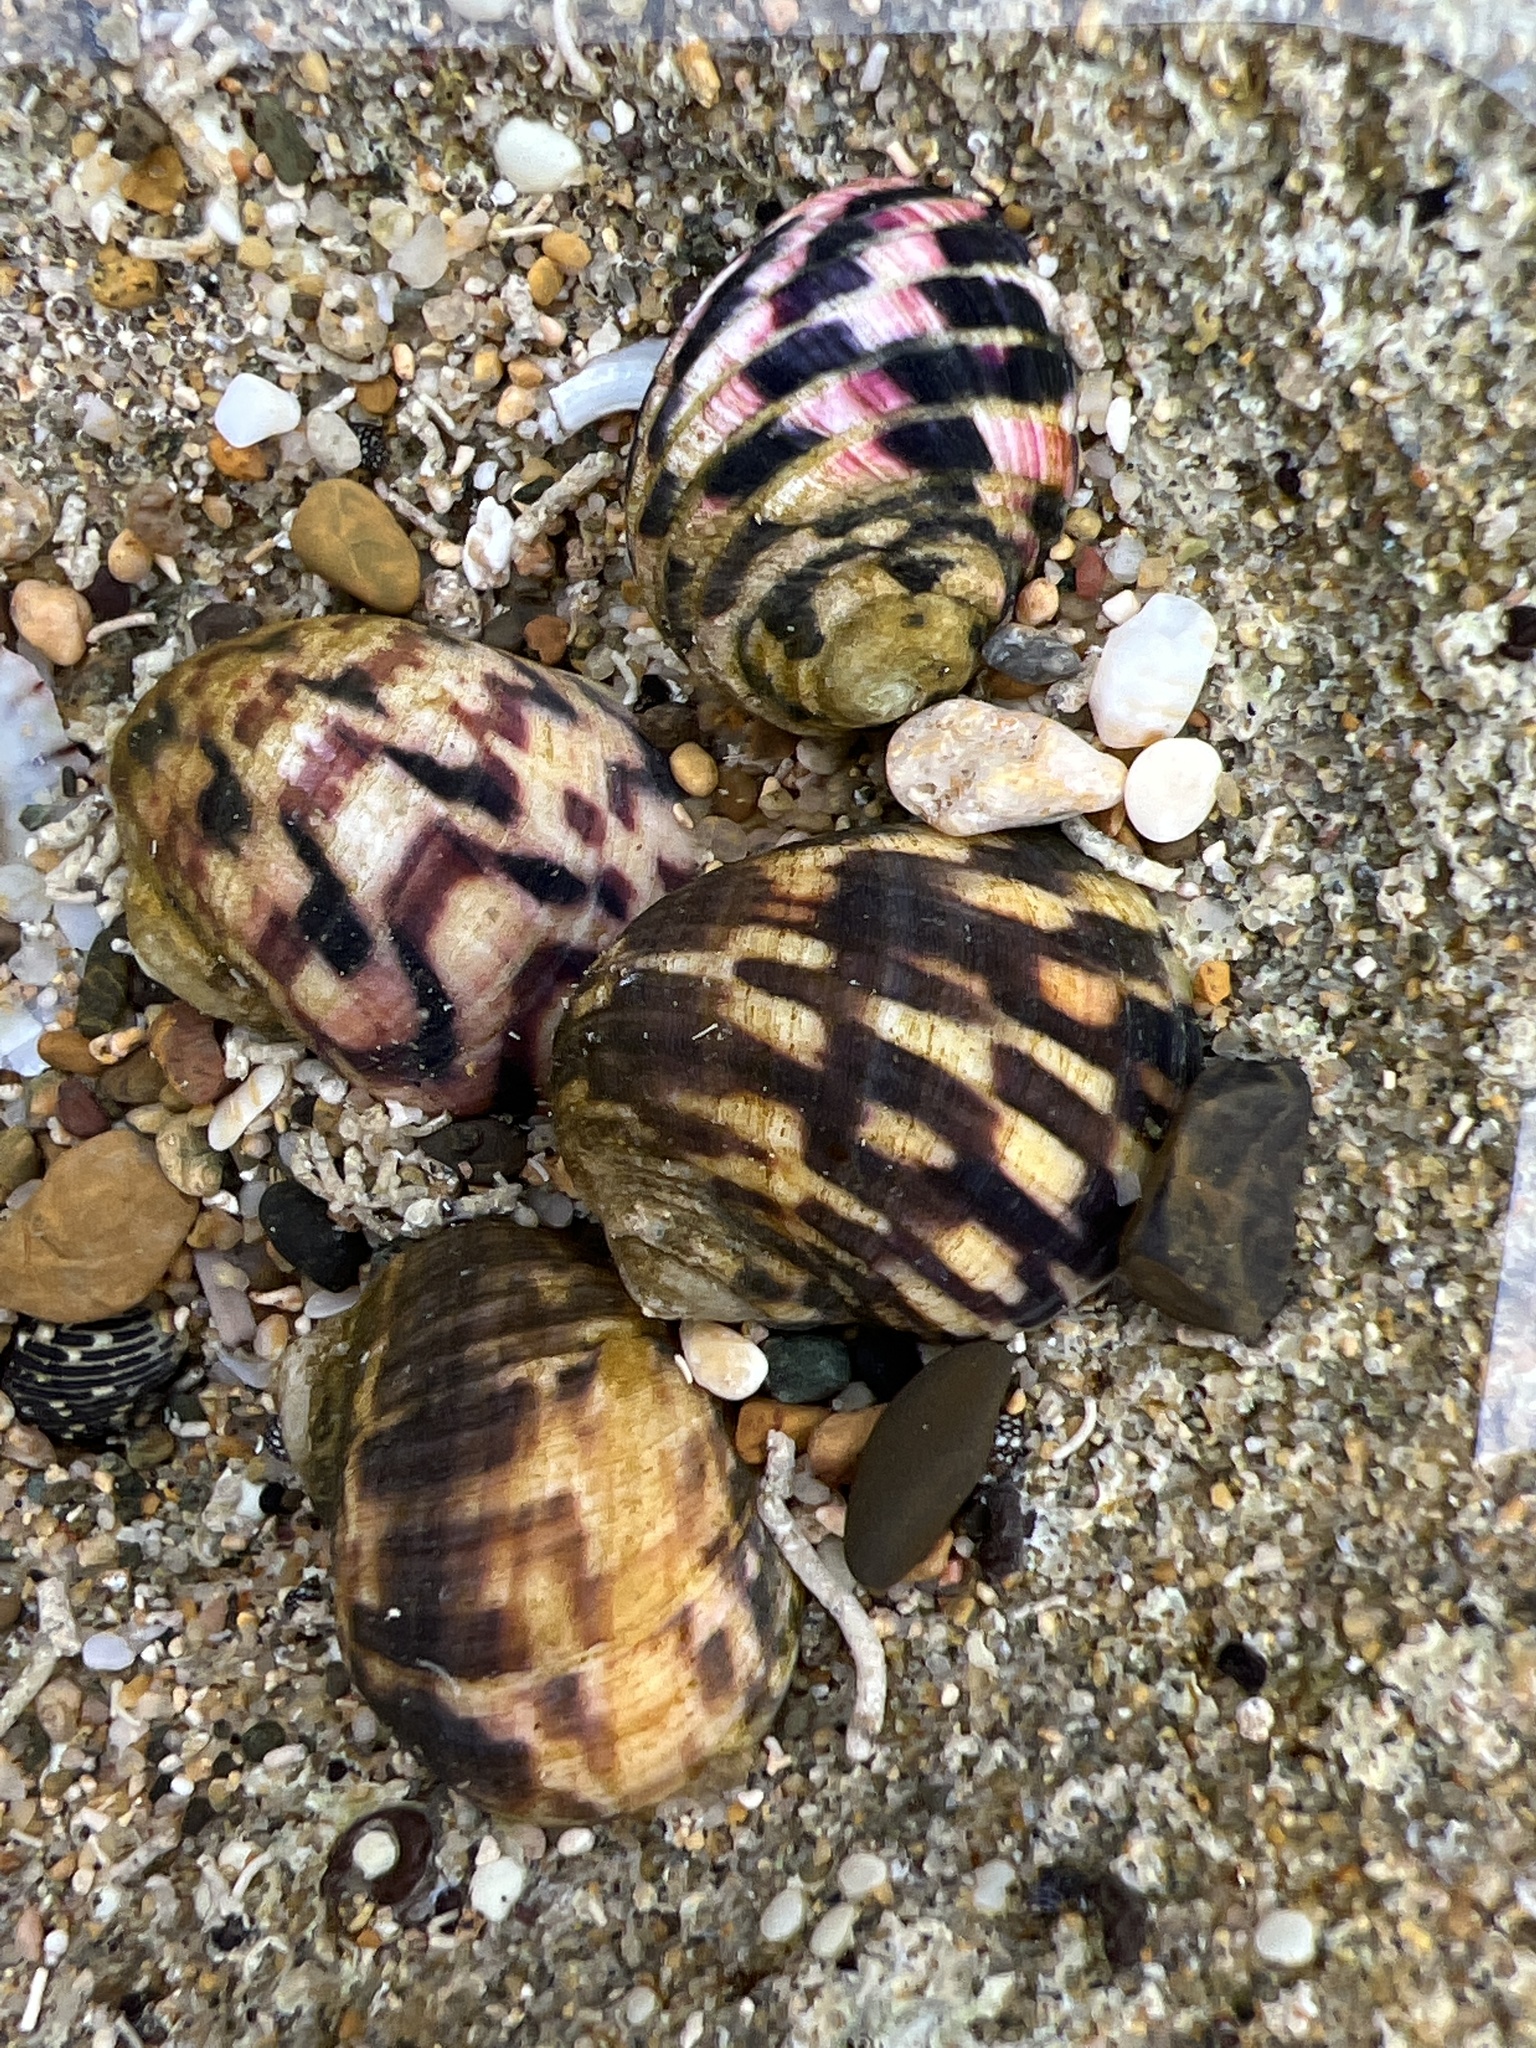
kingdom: Animalia
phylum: Mollusca
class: Gastropoda
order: Cycloneritida
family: Neritidae
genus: Nerita
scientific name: Nerita tessellata
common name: Checkered nerite
